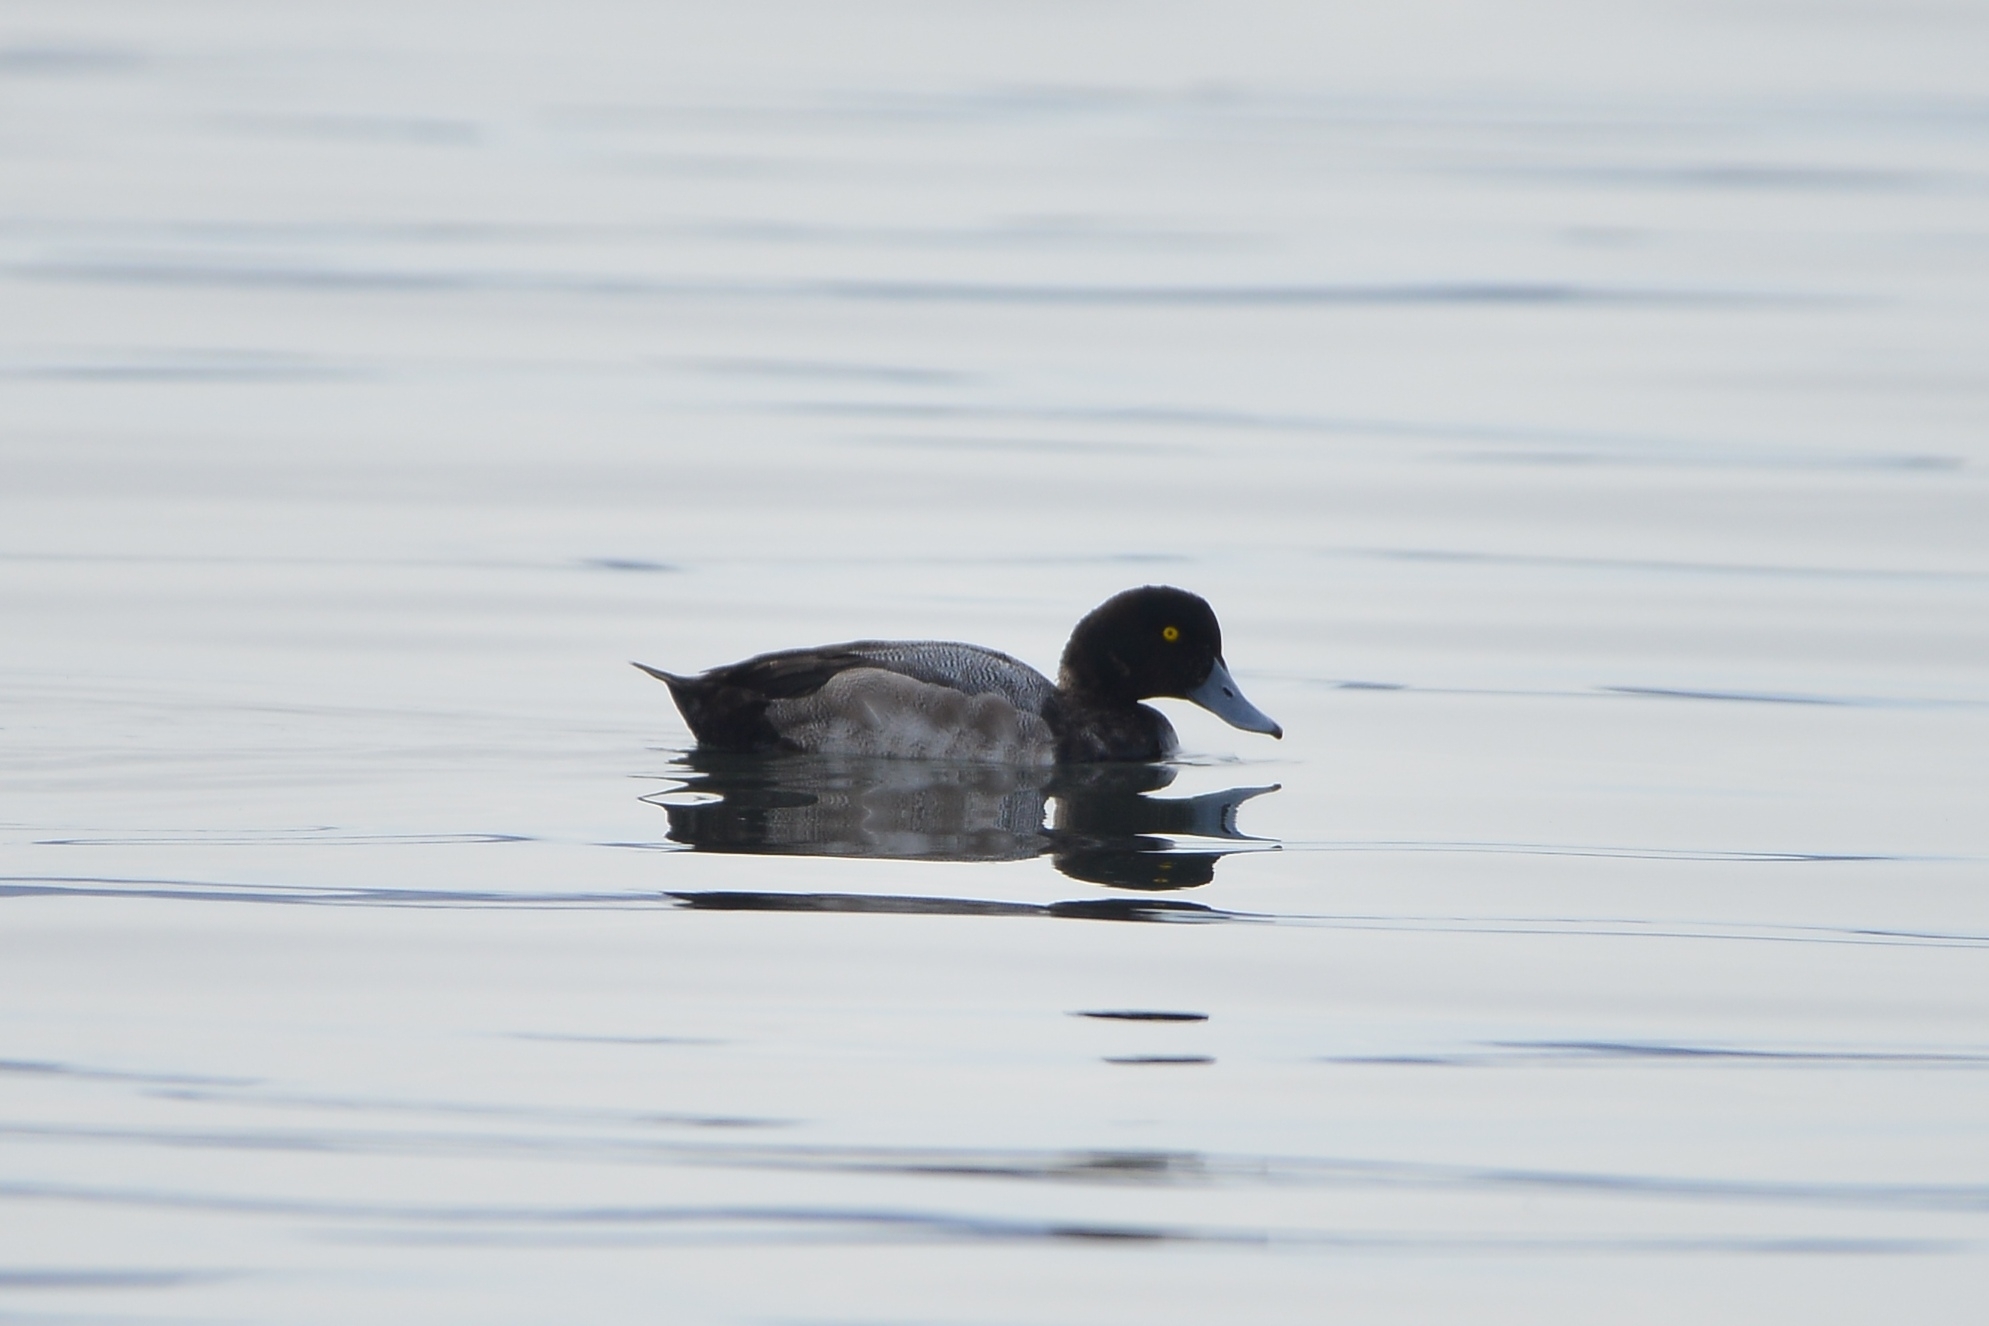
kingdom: Animalia
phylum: Chordata
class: Aves
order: Anseriformes
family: Anatidae
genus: Aythya
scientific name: Aythya marila
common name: Greater scaup
